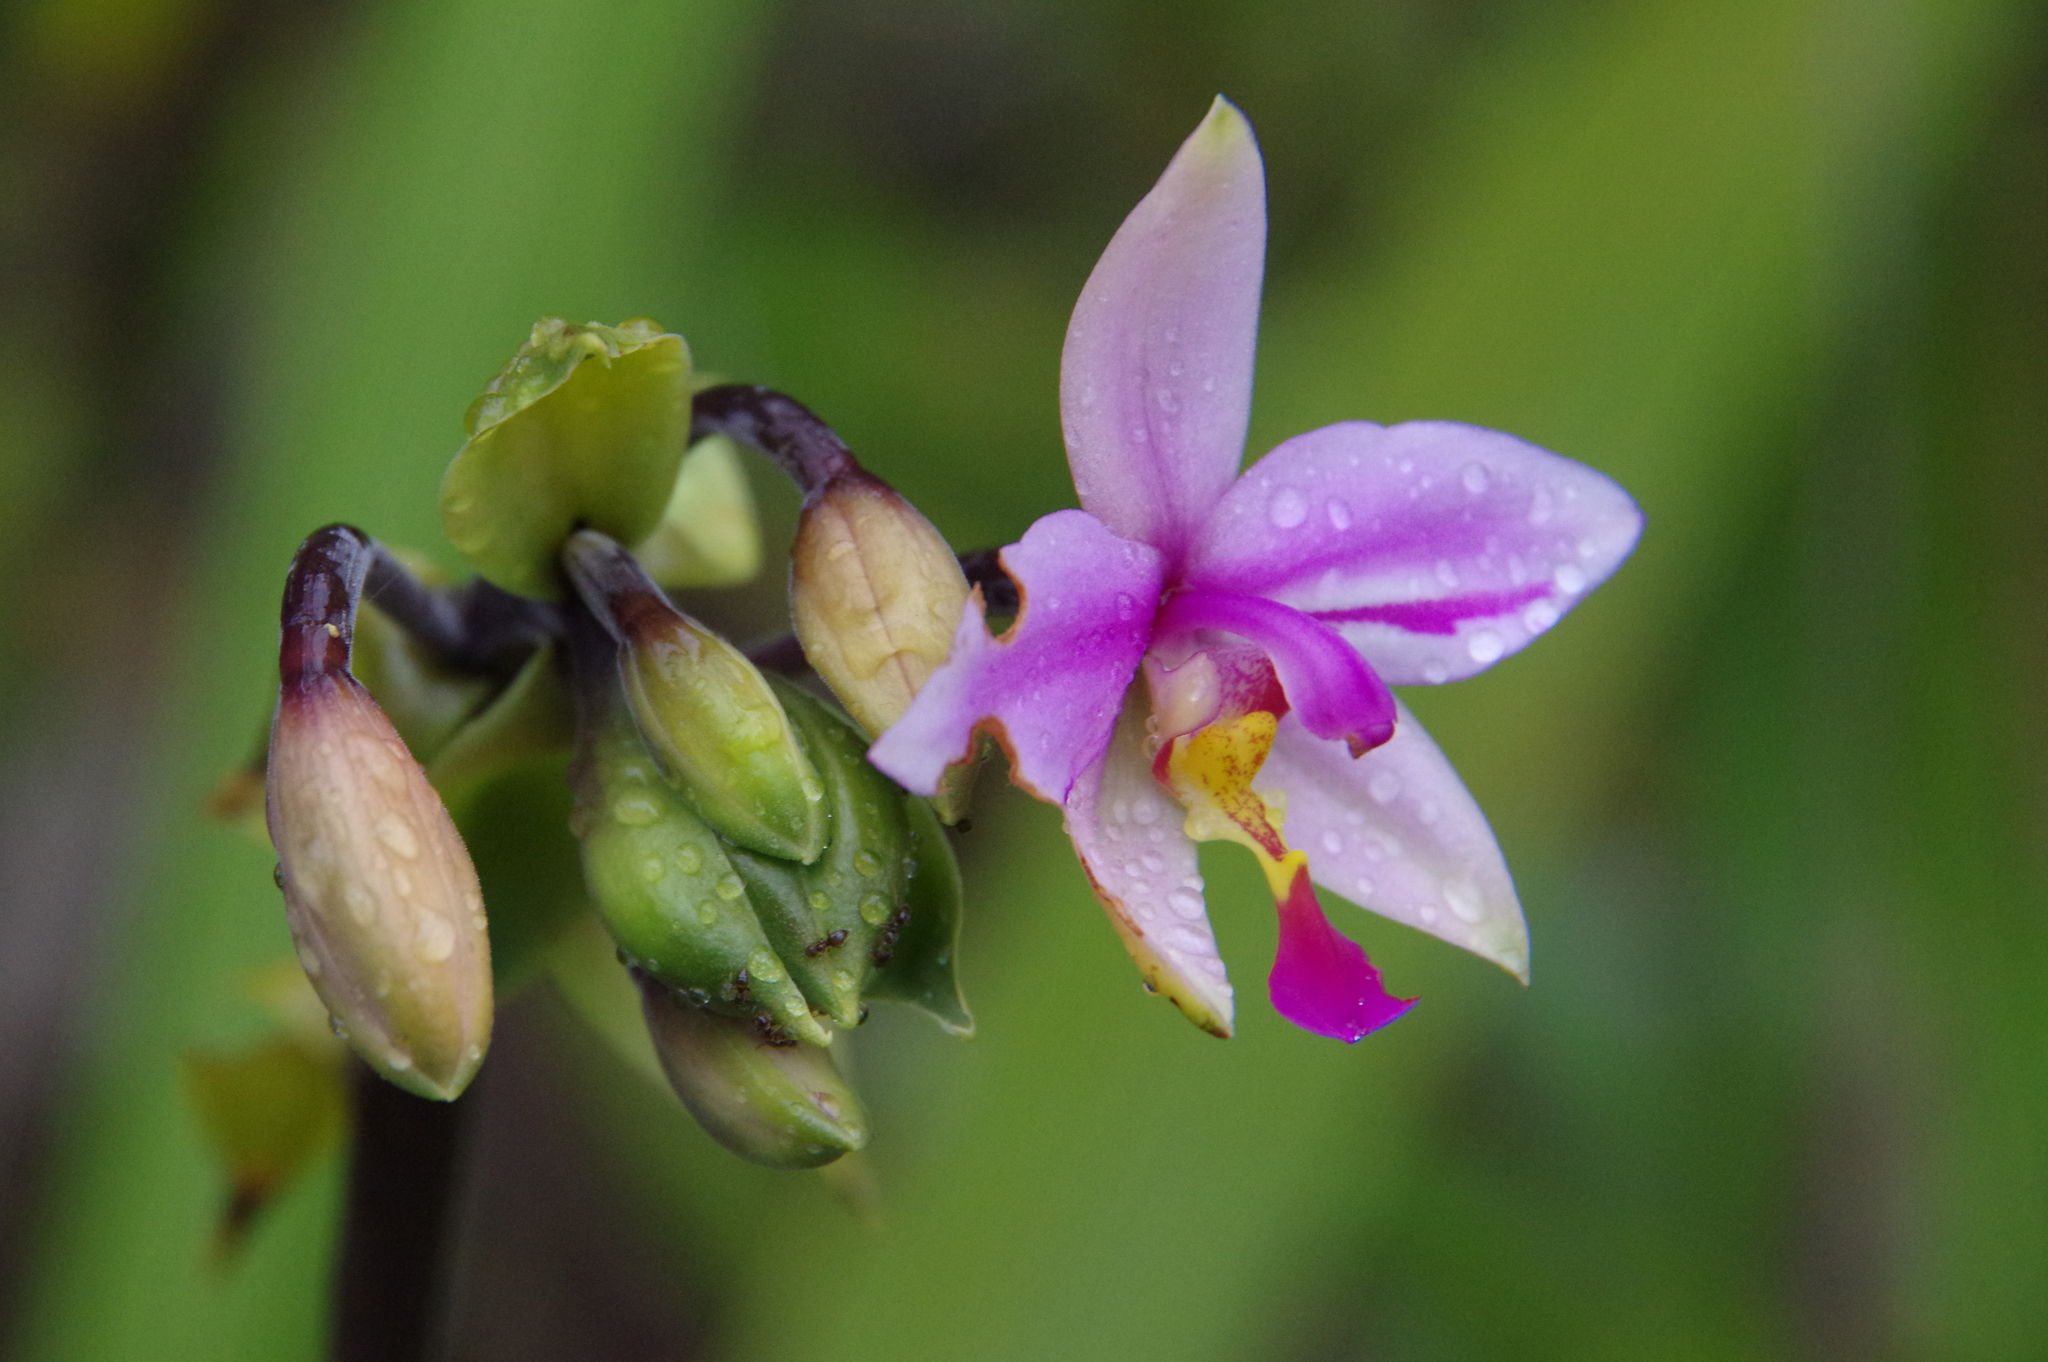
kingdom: Plantae
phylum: Tracheophyta
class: Liliopsida
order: Asparagales
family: Orchidaceae
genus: Spathoglottis
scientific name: Spathoglottis plicata
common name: Philippine ground orchid
